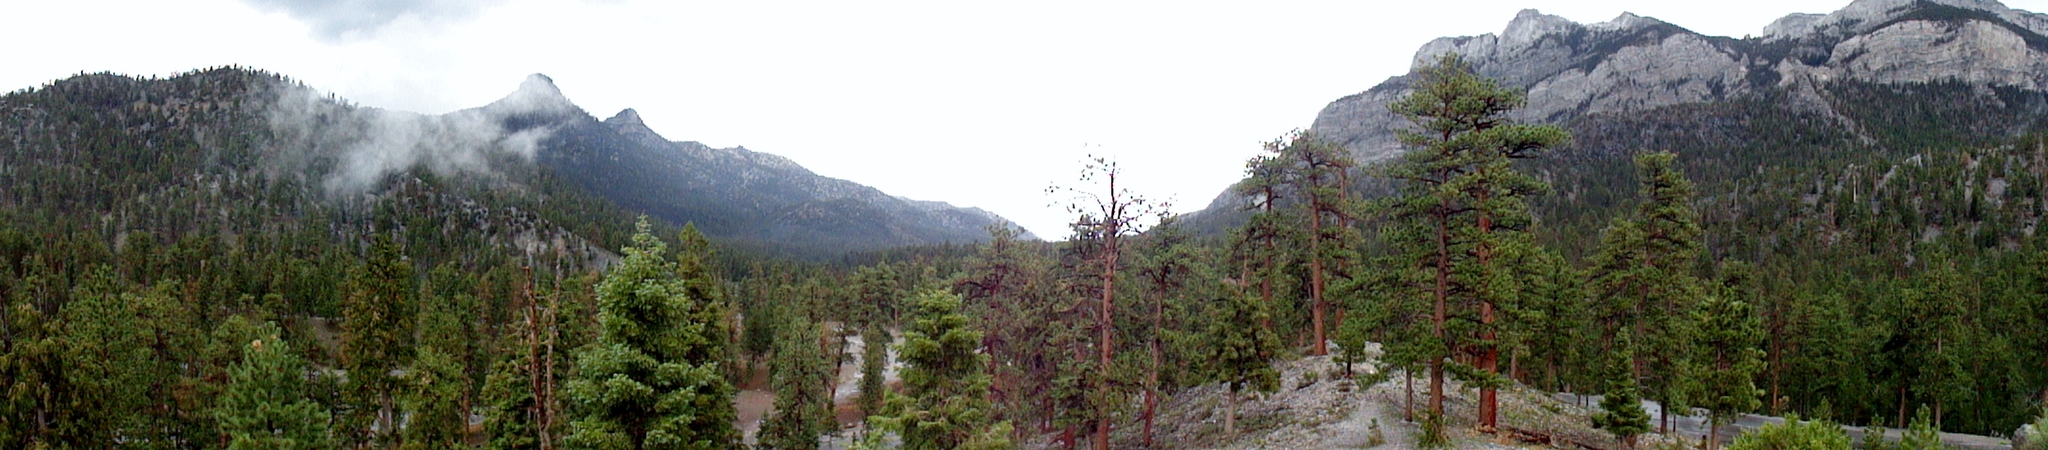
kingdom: Plantae
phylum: Tracheophyta
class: Pinopsida
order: Pinales
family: Pinaceae
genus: Pinus
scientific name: Pinus ponderosa
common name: Western yellow-pine
